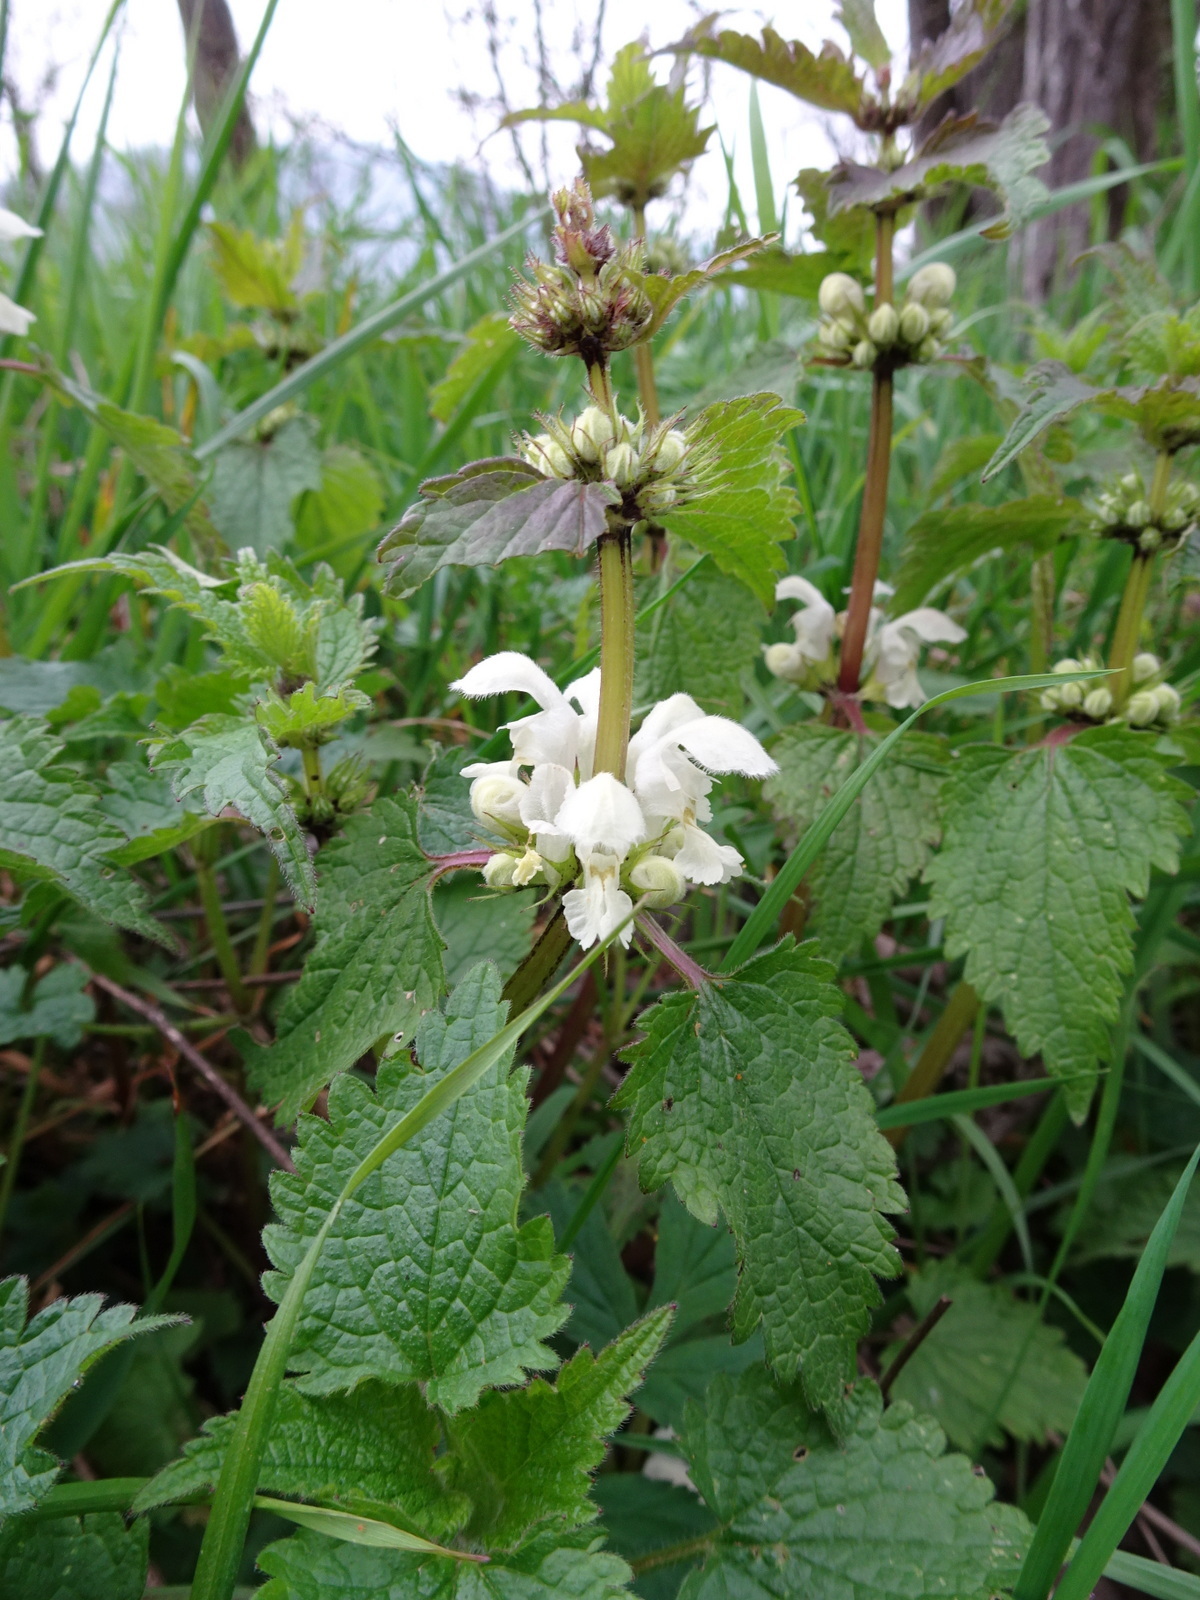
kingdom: Plantae
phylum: Tracheophyta
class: Magnoliopsida
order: Lamiales
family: Lamiaceae
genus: Lamium
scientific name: Lamium album
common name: White dead-nettle
